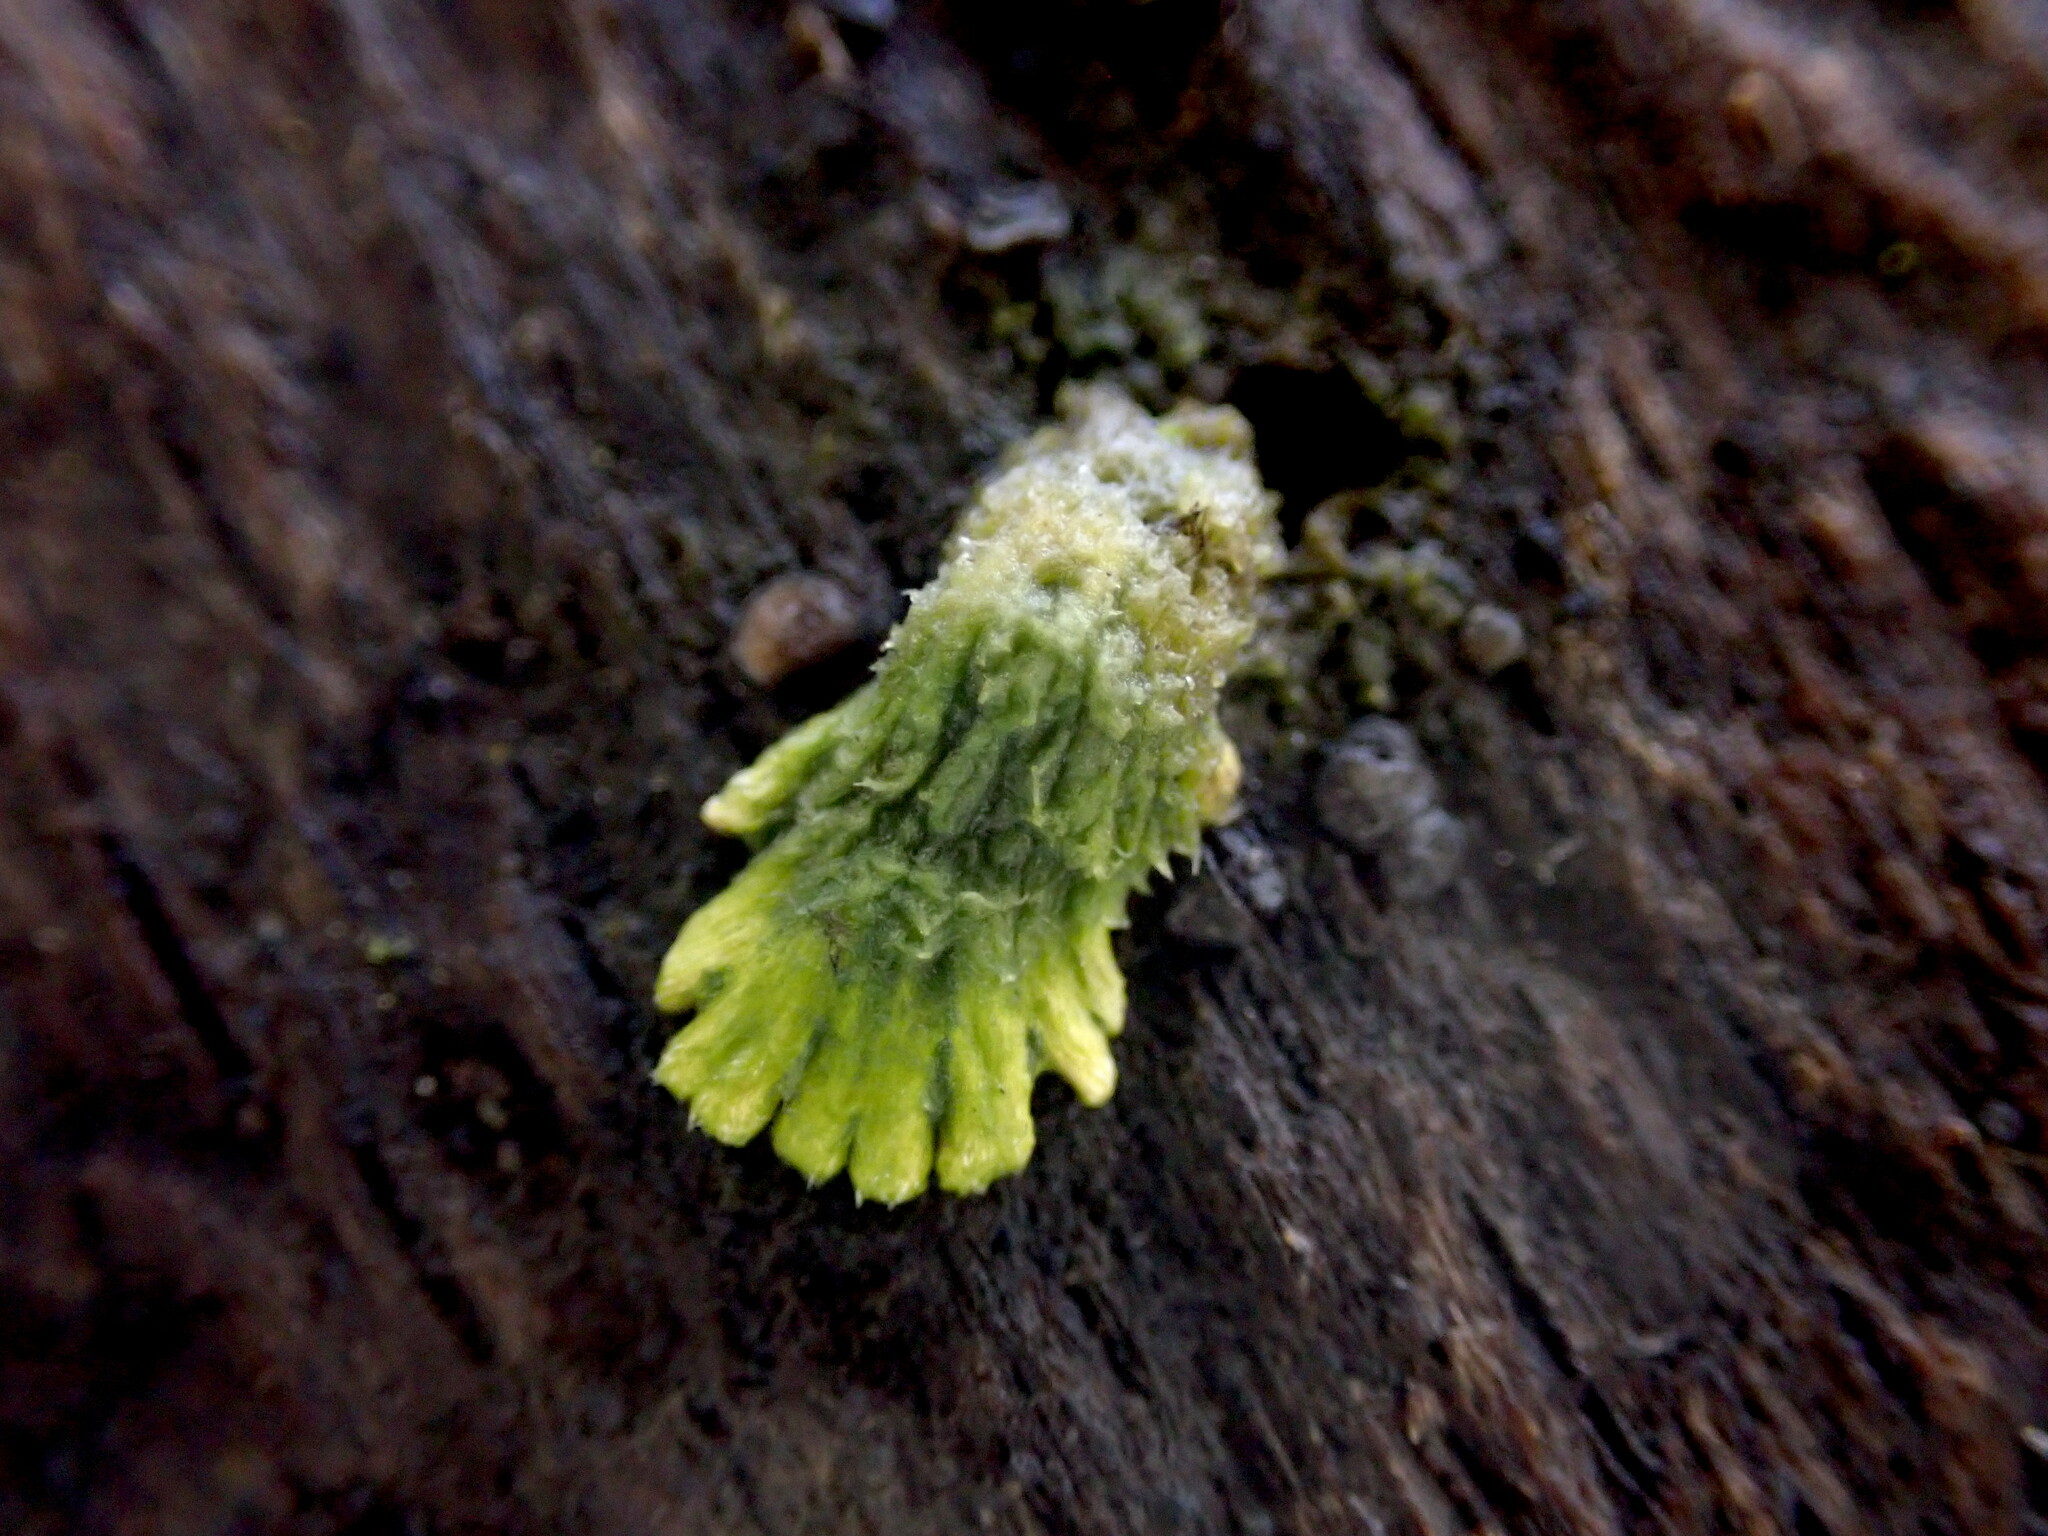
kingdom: Fungi
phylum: Basidiomycota
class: Agaricomycetes
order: Agaricales
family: Schizophyllaceae
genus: Schizophyllum
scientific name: Schizophyllum commune
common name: Common porecrust
